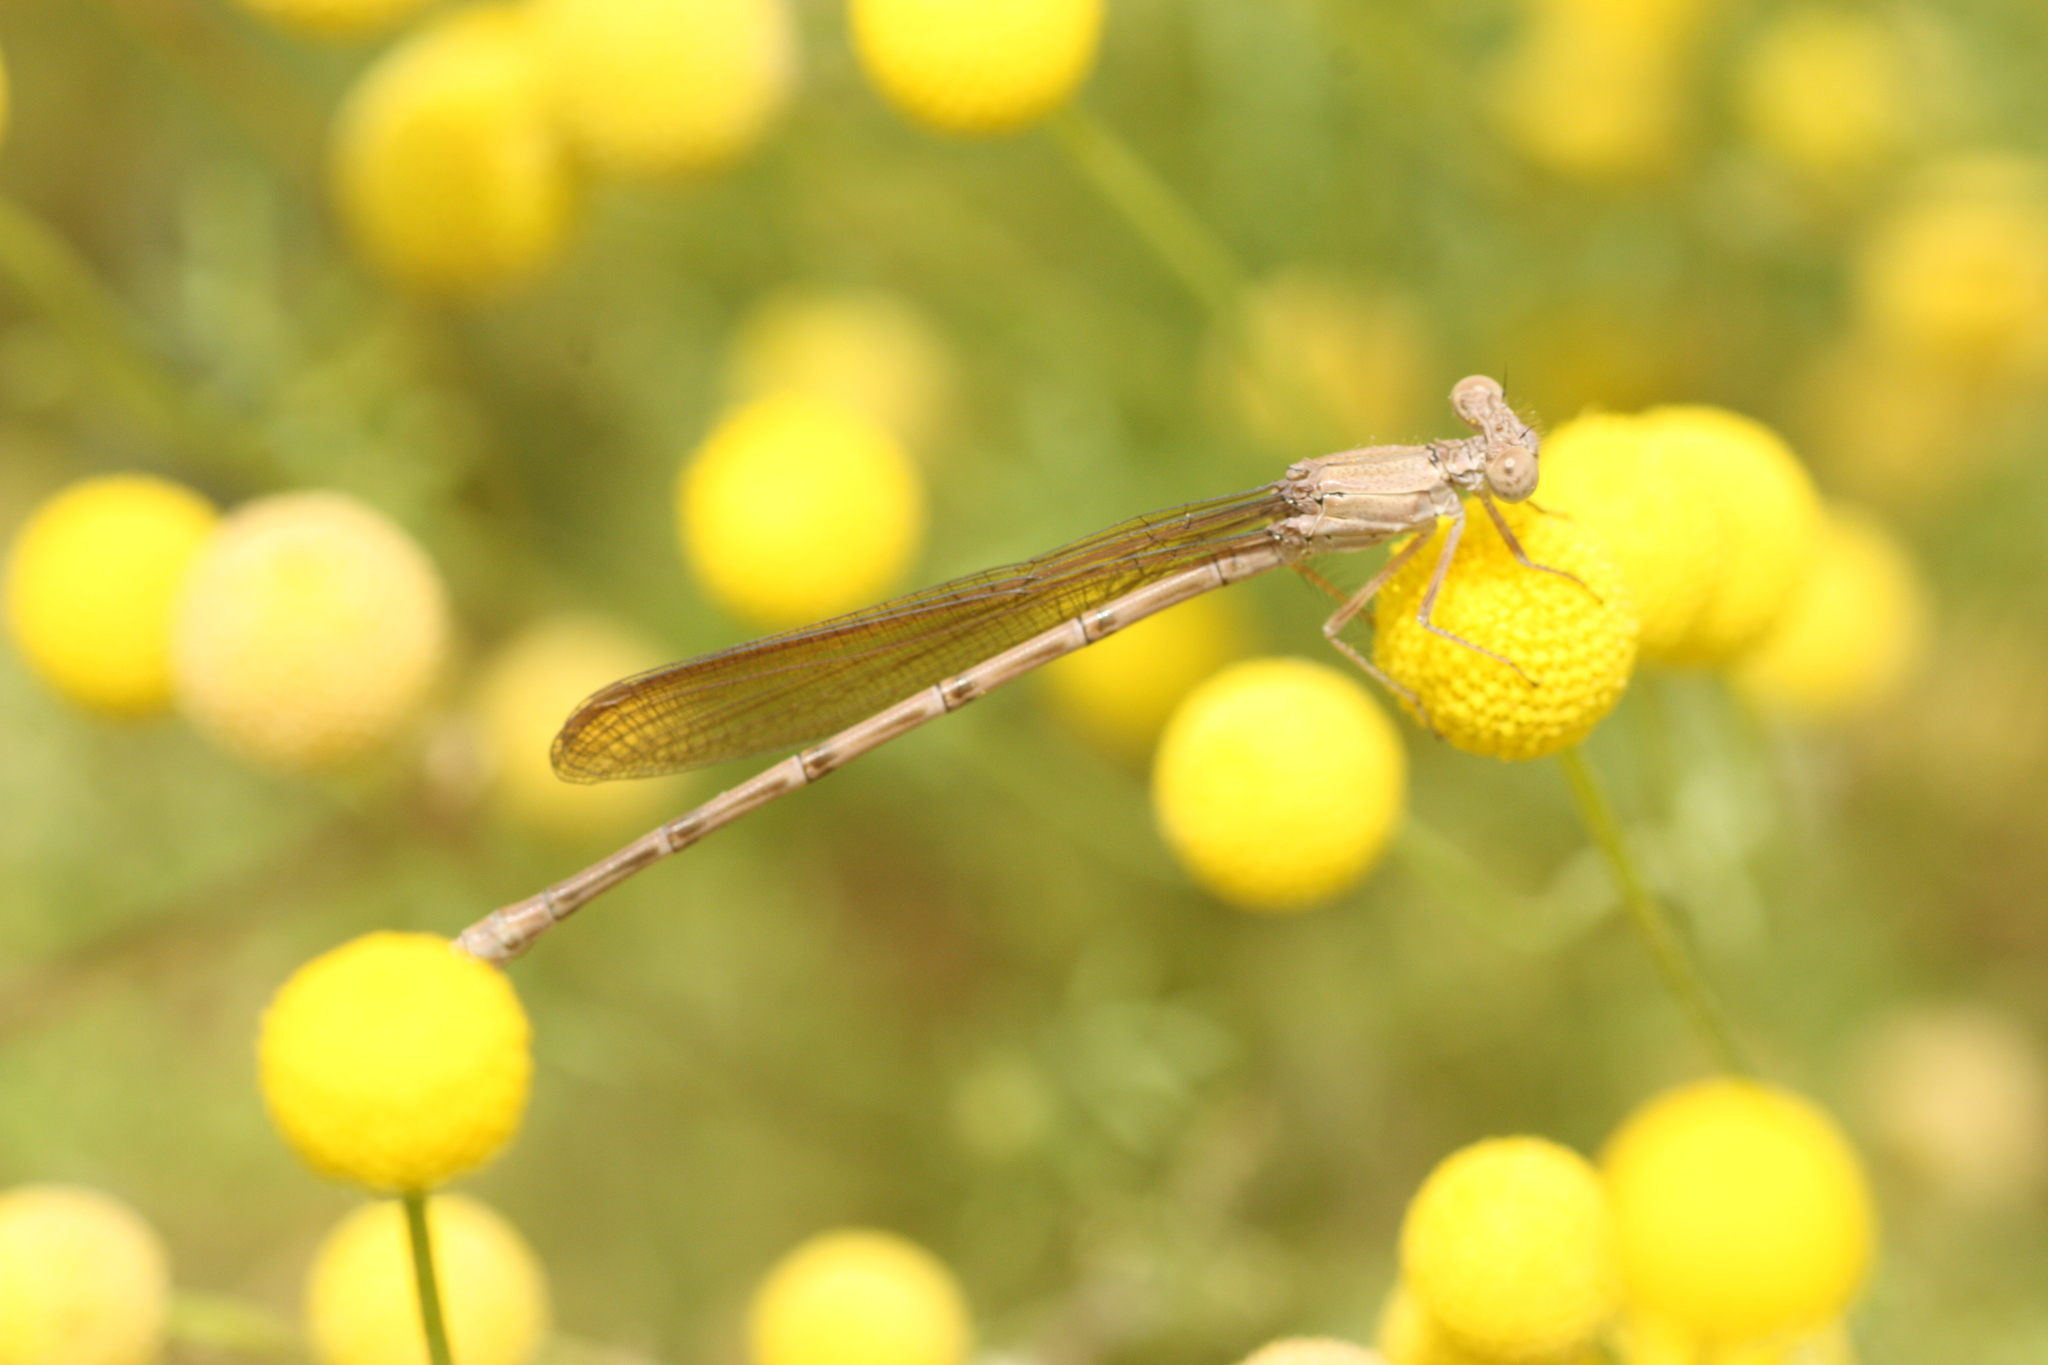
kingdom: Animalia
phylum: Arthropoda
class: Insecta
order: Odonata
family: Coenagrionidae
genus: Argia
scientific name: Argia sedula
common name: Blue-ringed dancer
